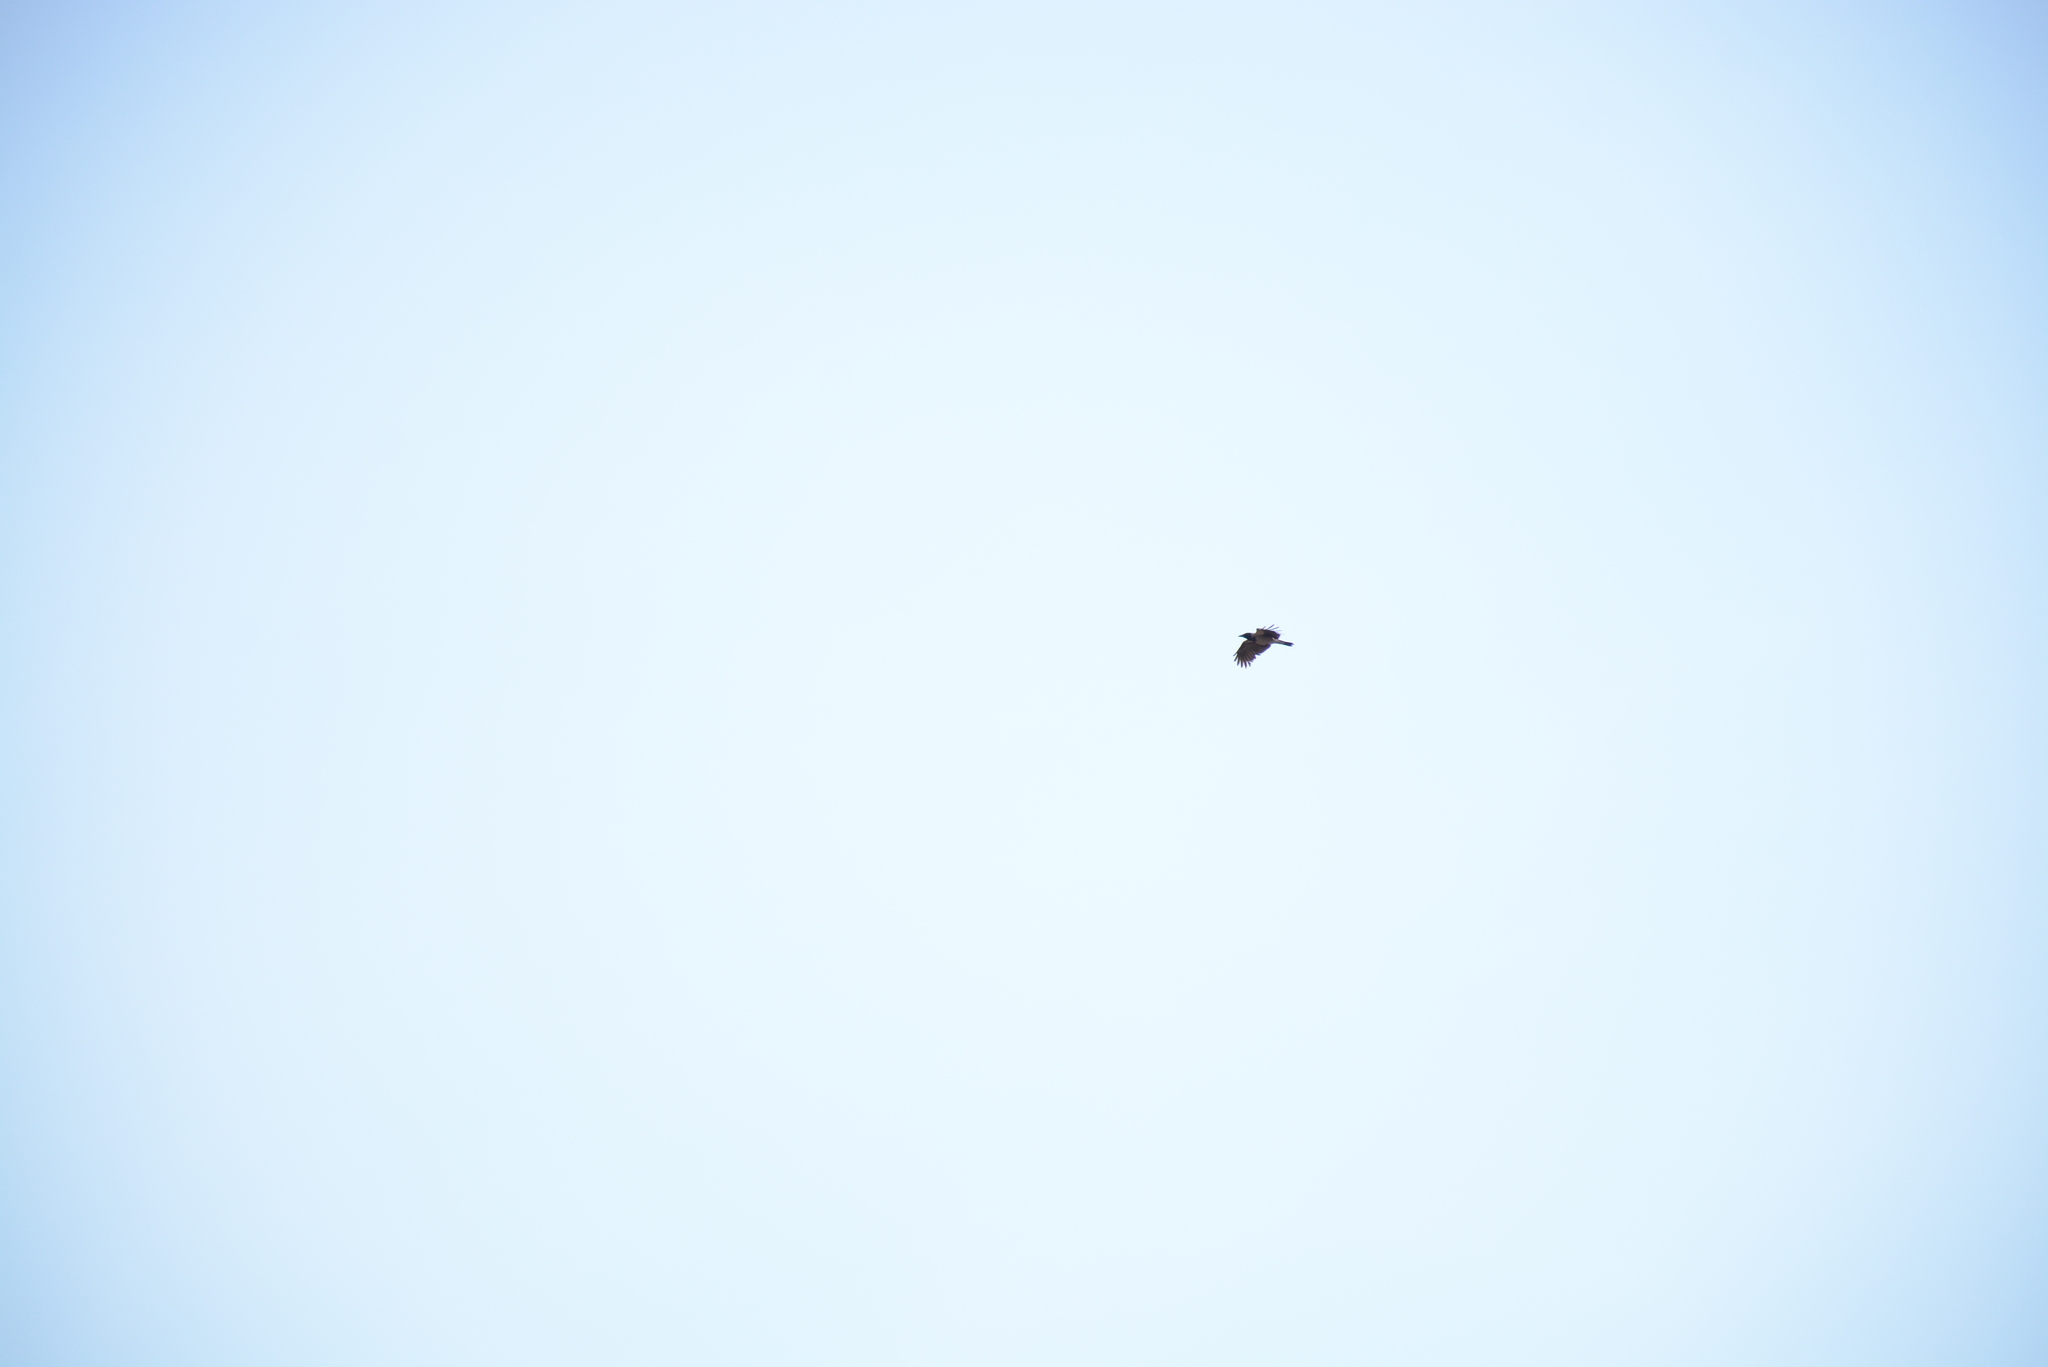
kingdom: Animalia
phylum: Chordata
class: Aves
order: Passeriformes
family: Corvidae
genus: Corvus
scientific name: Corvus cornix
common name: Hooded crow
